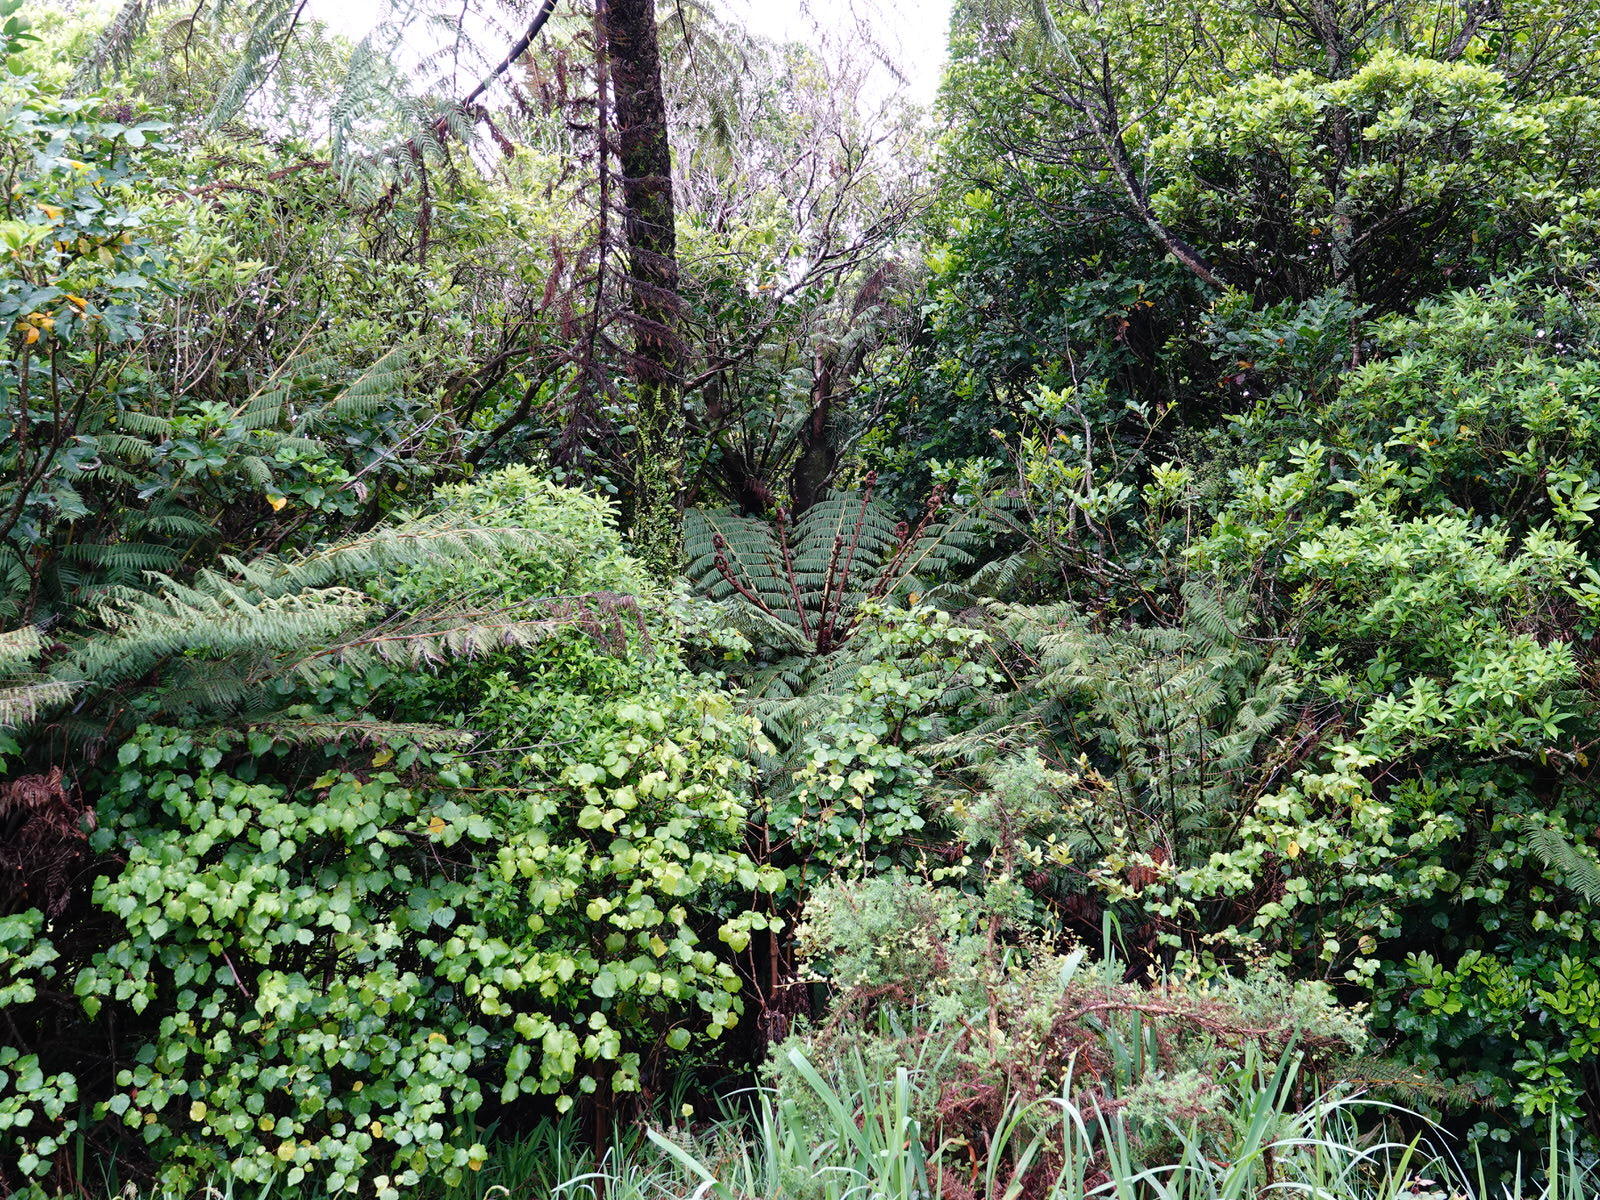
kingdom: Plantae
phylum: Tracheophyta
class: Polypodiopsida
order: Cyatheales
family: Cyatheaceae
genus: Alsophila
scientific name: Alsophila dealbata
